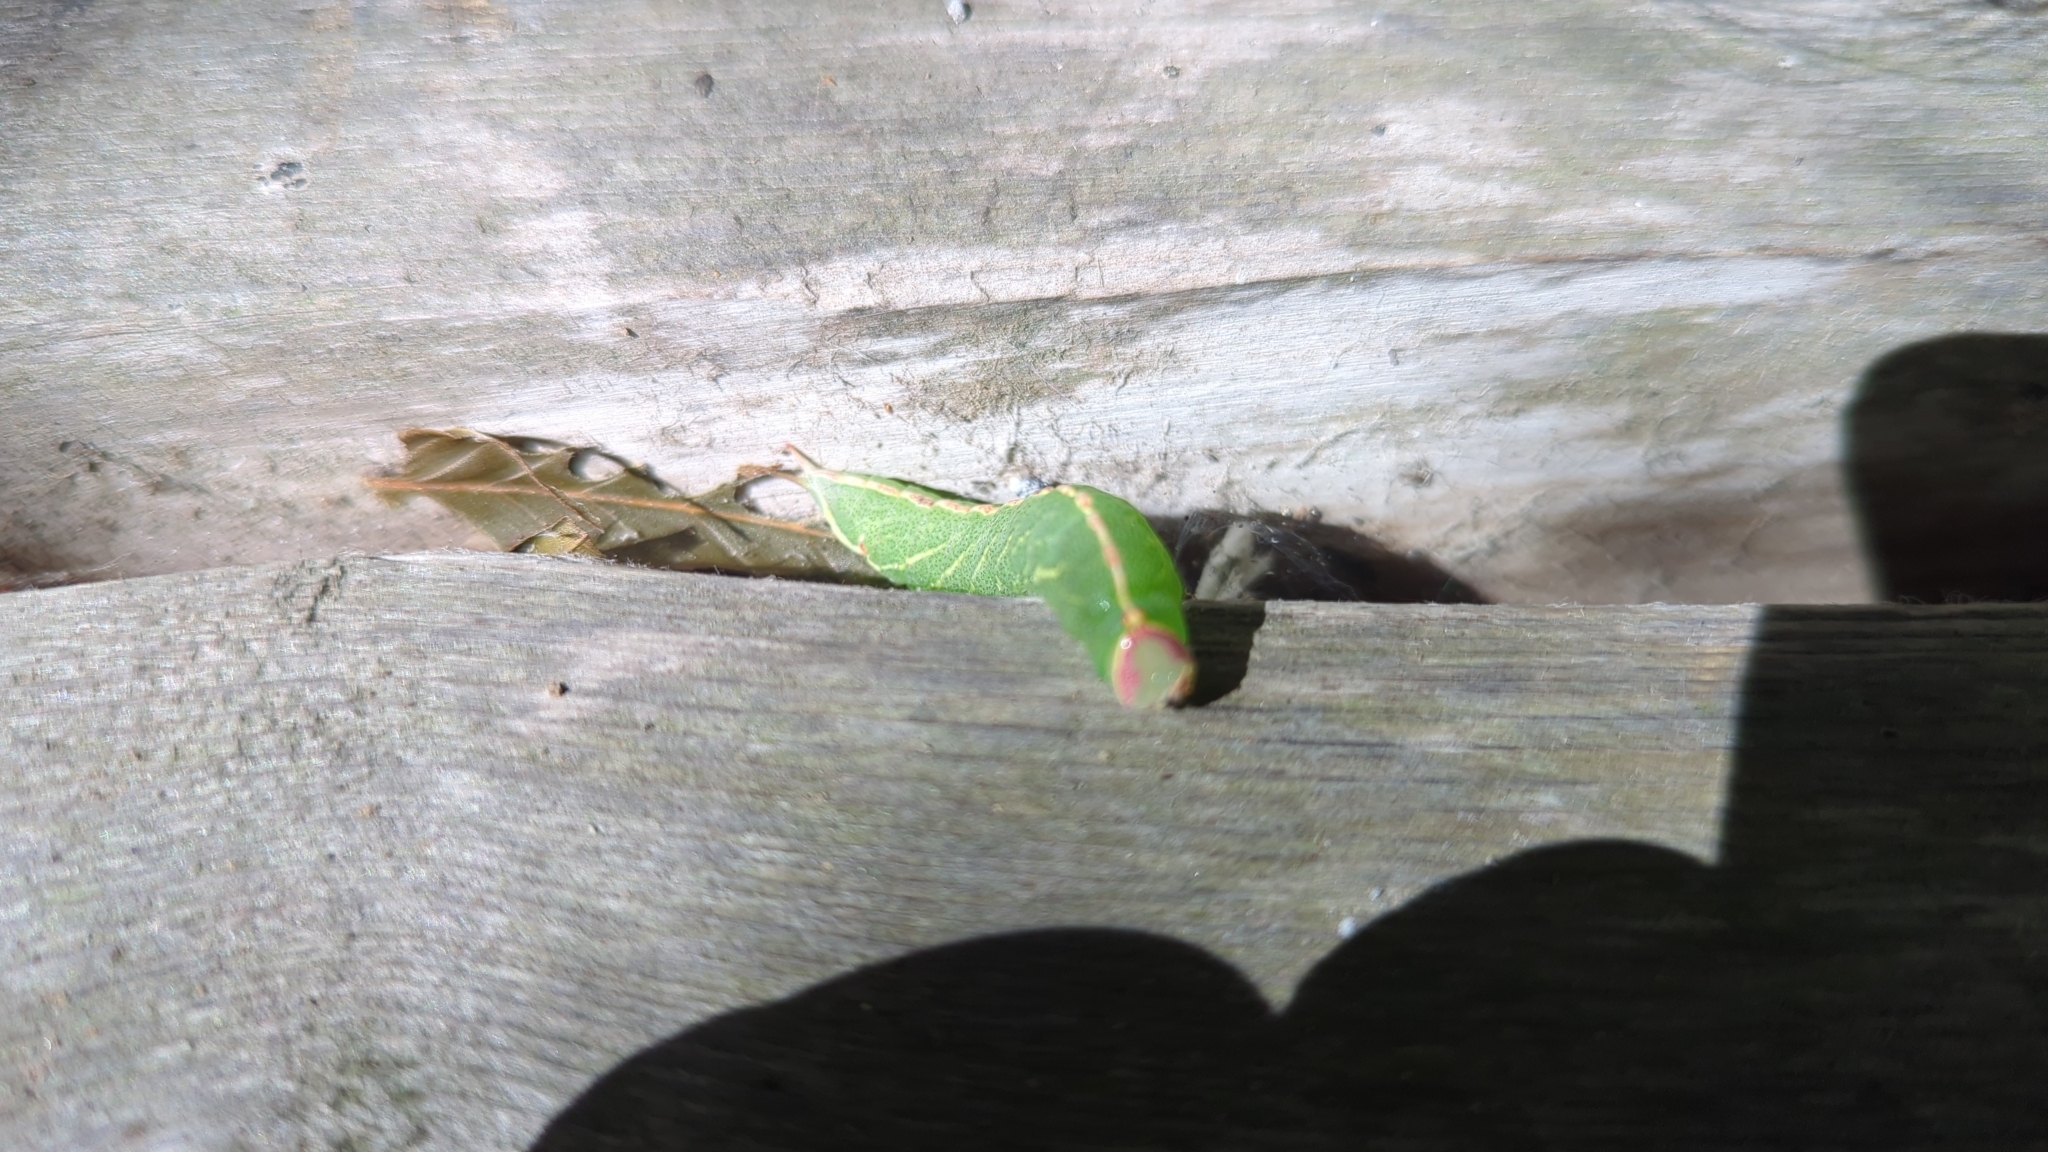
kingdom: Animalia
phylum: Arthropoda
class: Insecta
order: Lepidoptera
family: Notodontidae
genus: Macrurocampa
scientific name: Macrurocampa marthesia
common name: Mottled prominent
